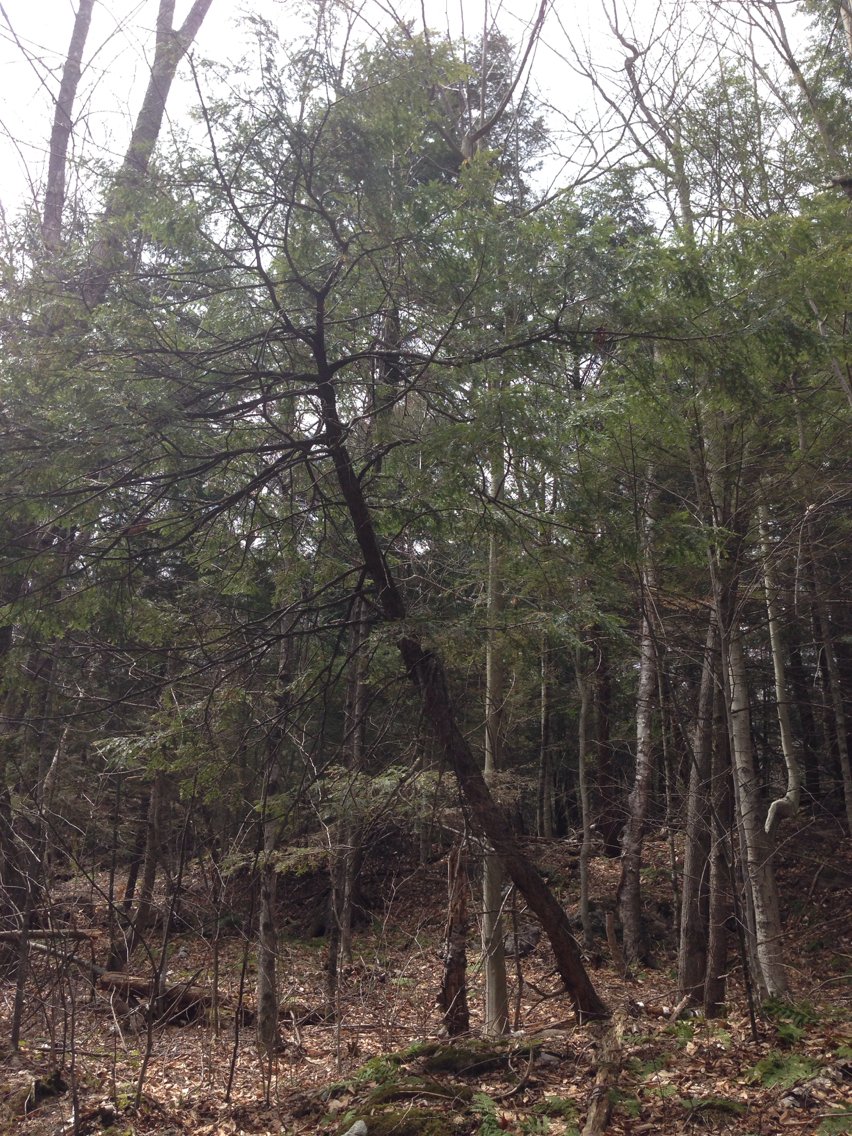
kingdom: Plantae
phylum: Tracheophyta
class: Pinopsida
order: Pinales
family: Pinaceae
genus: Tsuga
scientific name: Tsuga canadensis
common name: Eastern hemlock
